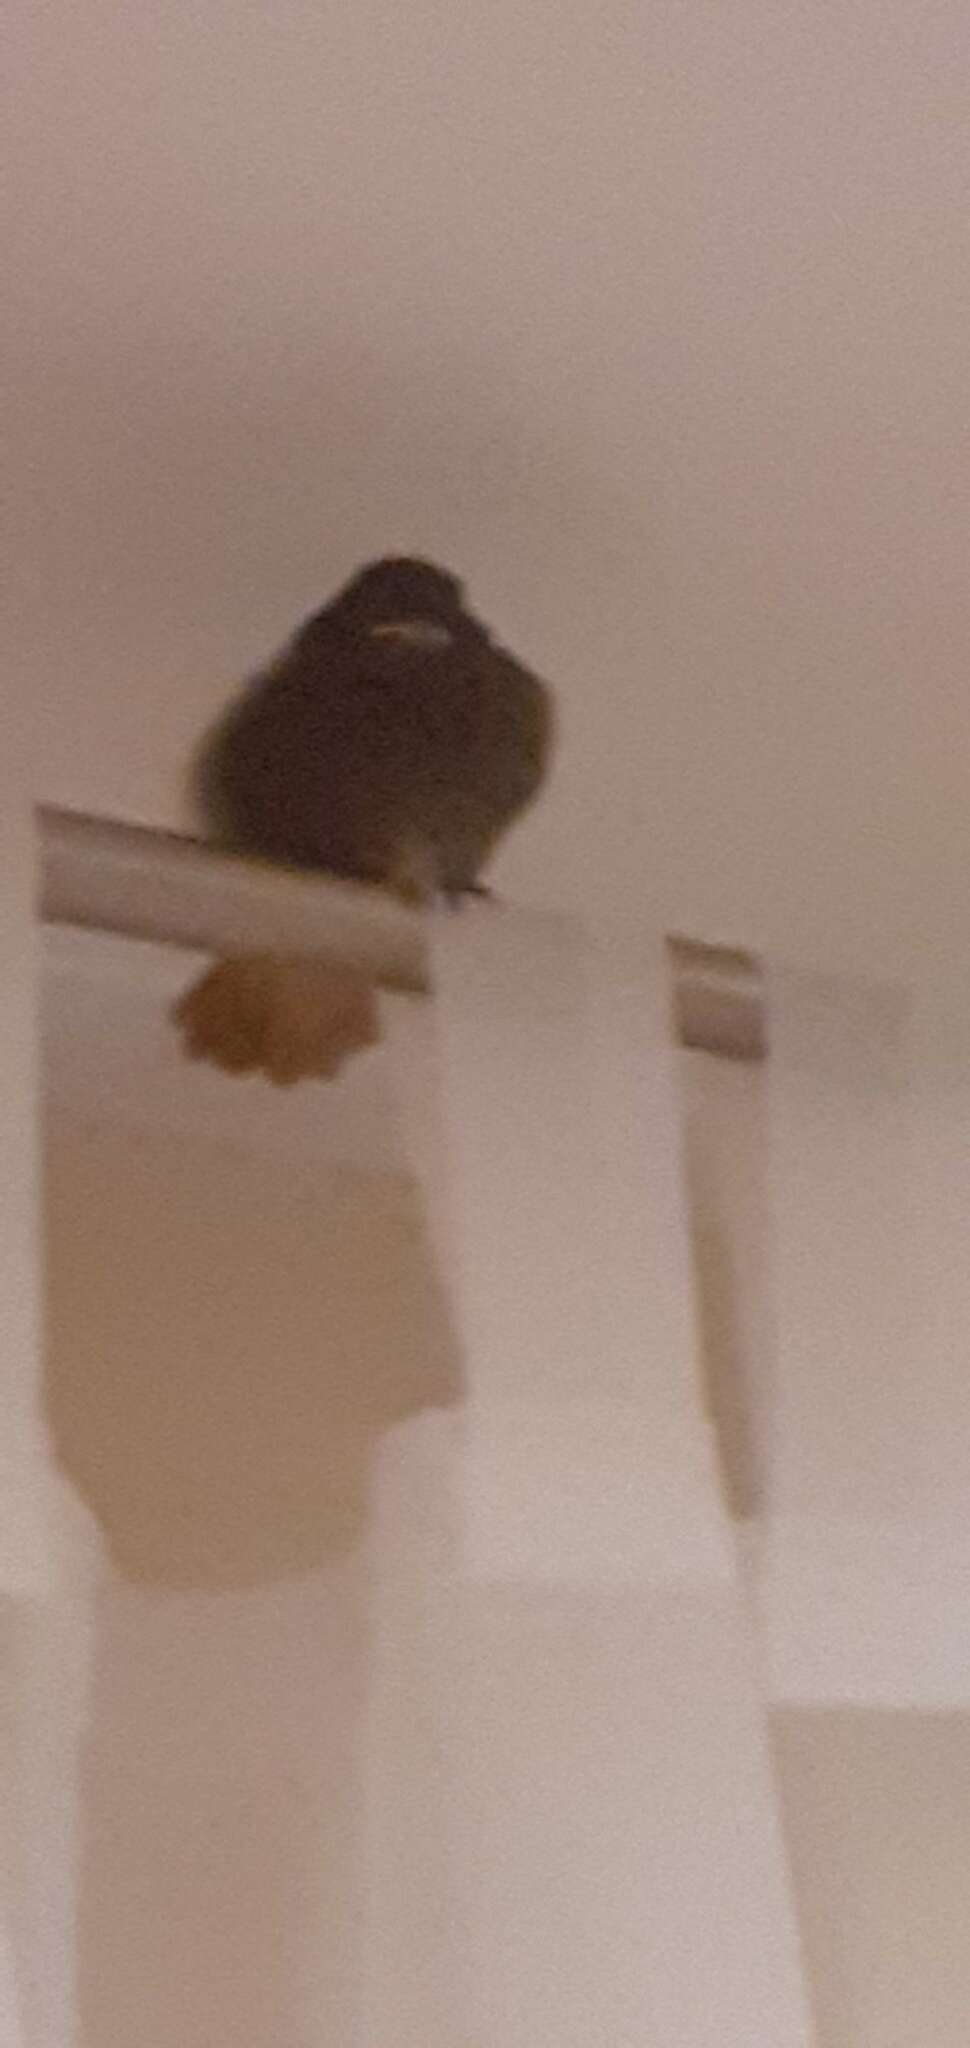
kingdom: Animalia
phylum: Chordata
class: Aves
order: Passeriformes
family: Muscicapidae
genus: Phoenicurus
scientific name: Phoenicurus ochruros
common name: Black redstart
